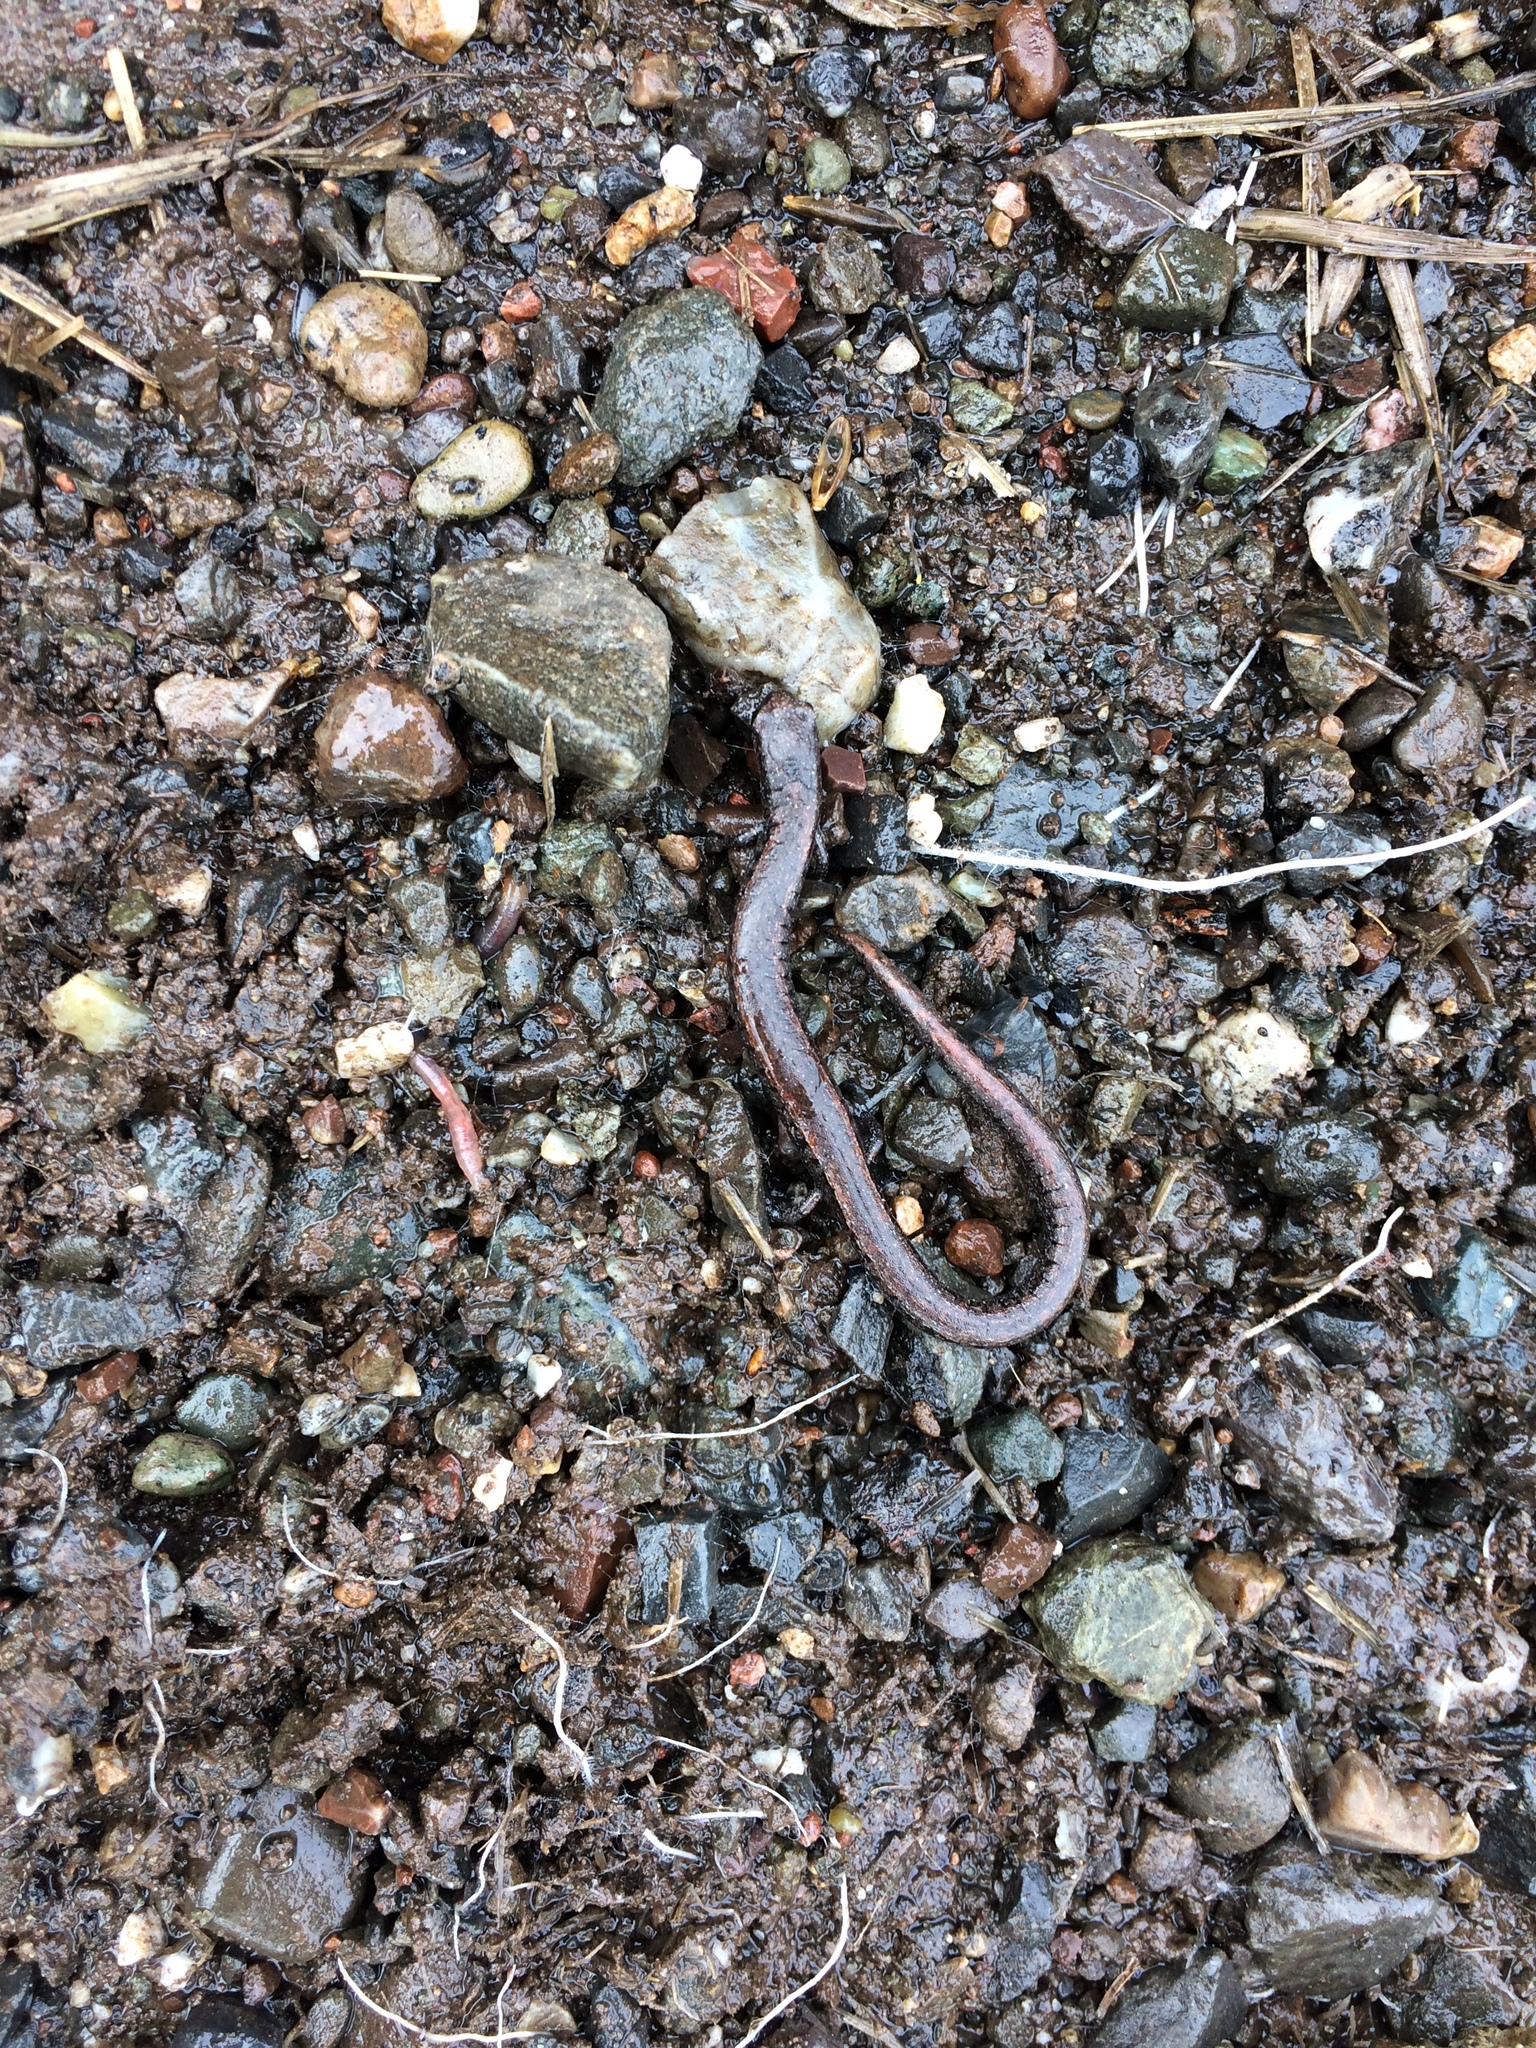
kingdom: Animalia
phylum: Chordata
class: Amphibia
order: Caudata
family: Plethodontidae
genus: Batrachoseps
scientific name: Batrachoseps attenuatus
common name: California slender salamander
